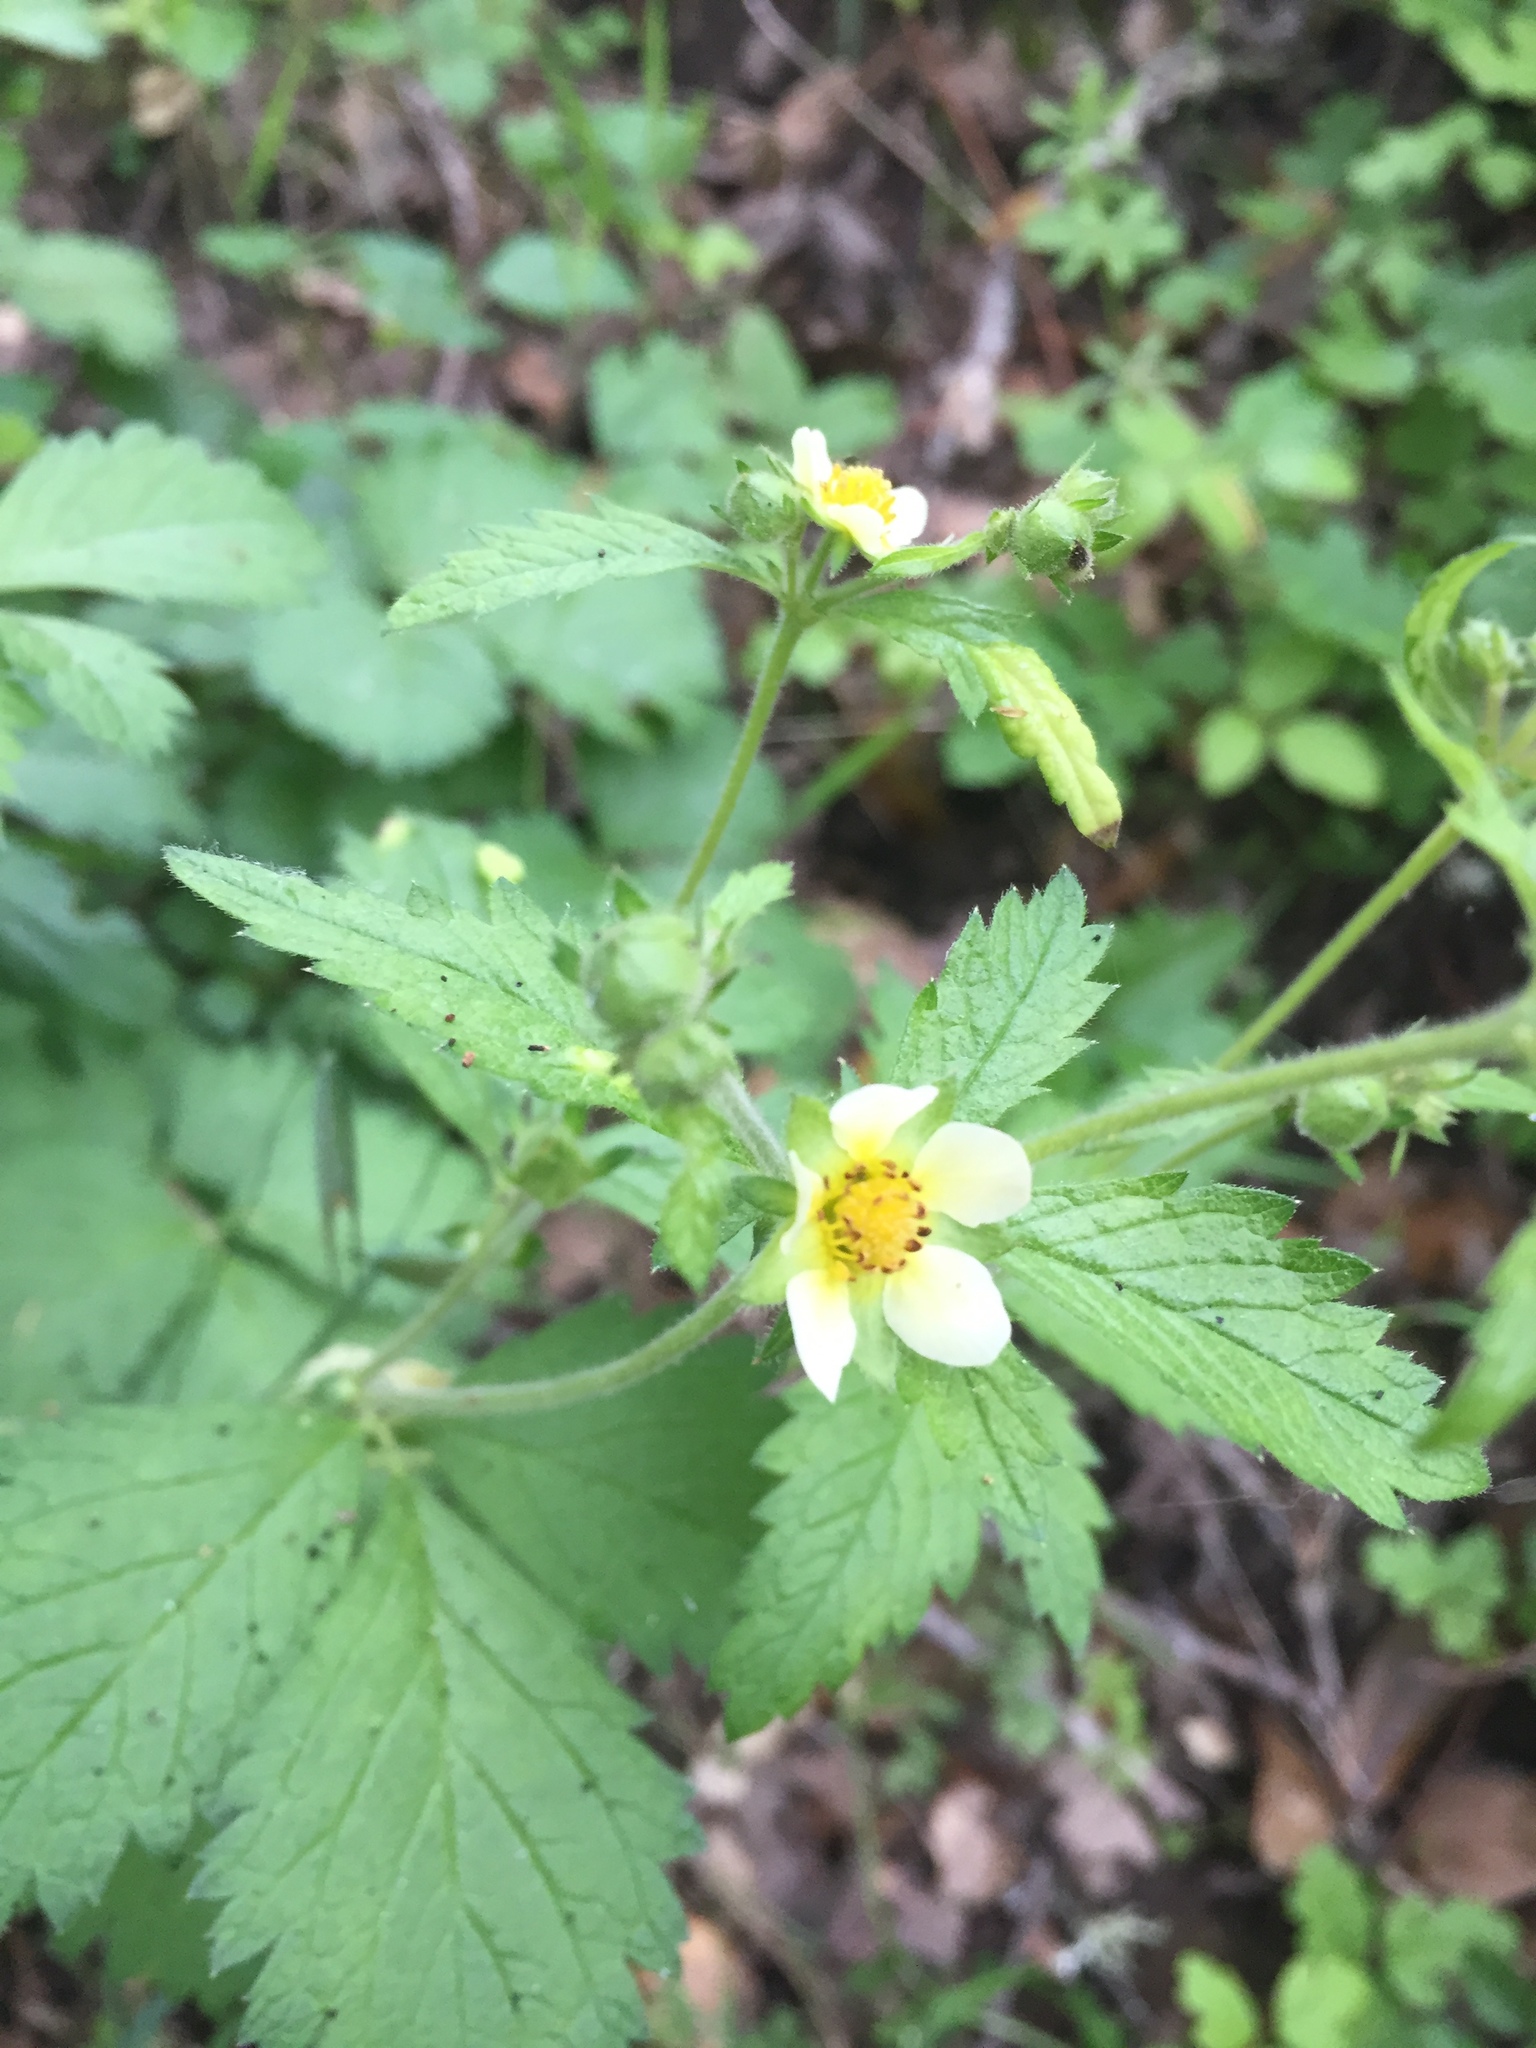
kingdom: Plantae
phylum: Tracheophyta
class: Magnoliopsida
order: Rosales
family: Rosaceae
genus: Drymocallis
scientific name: Drymocallis glandulosa
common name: Sticky cinquefoil
